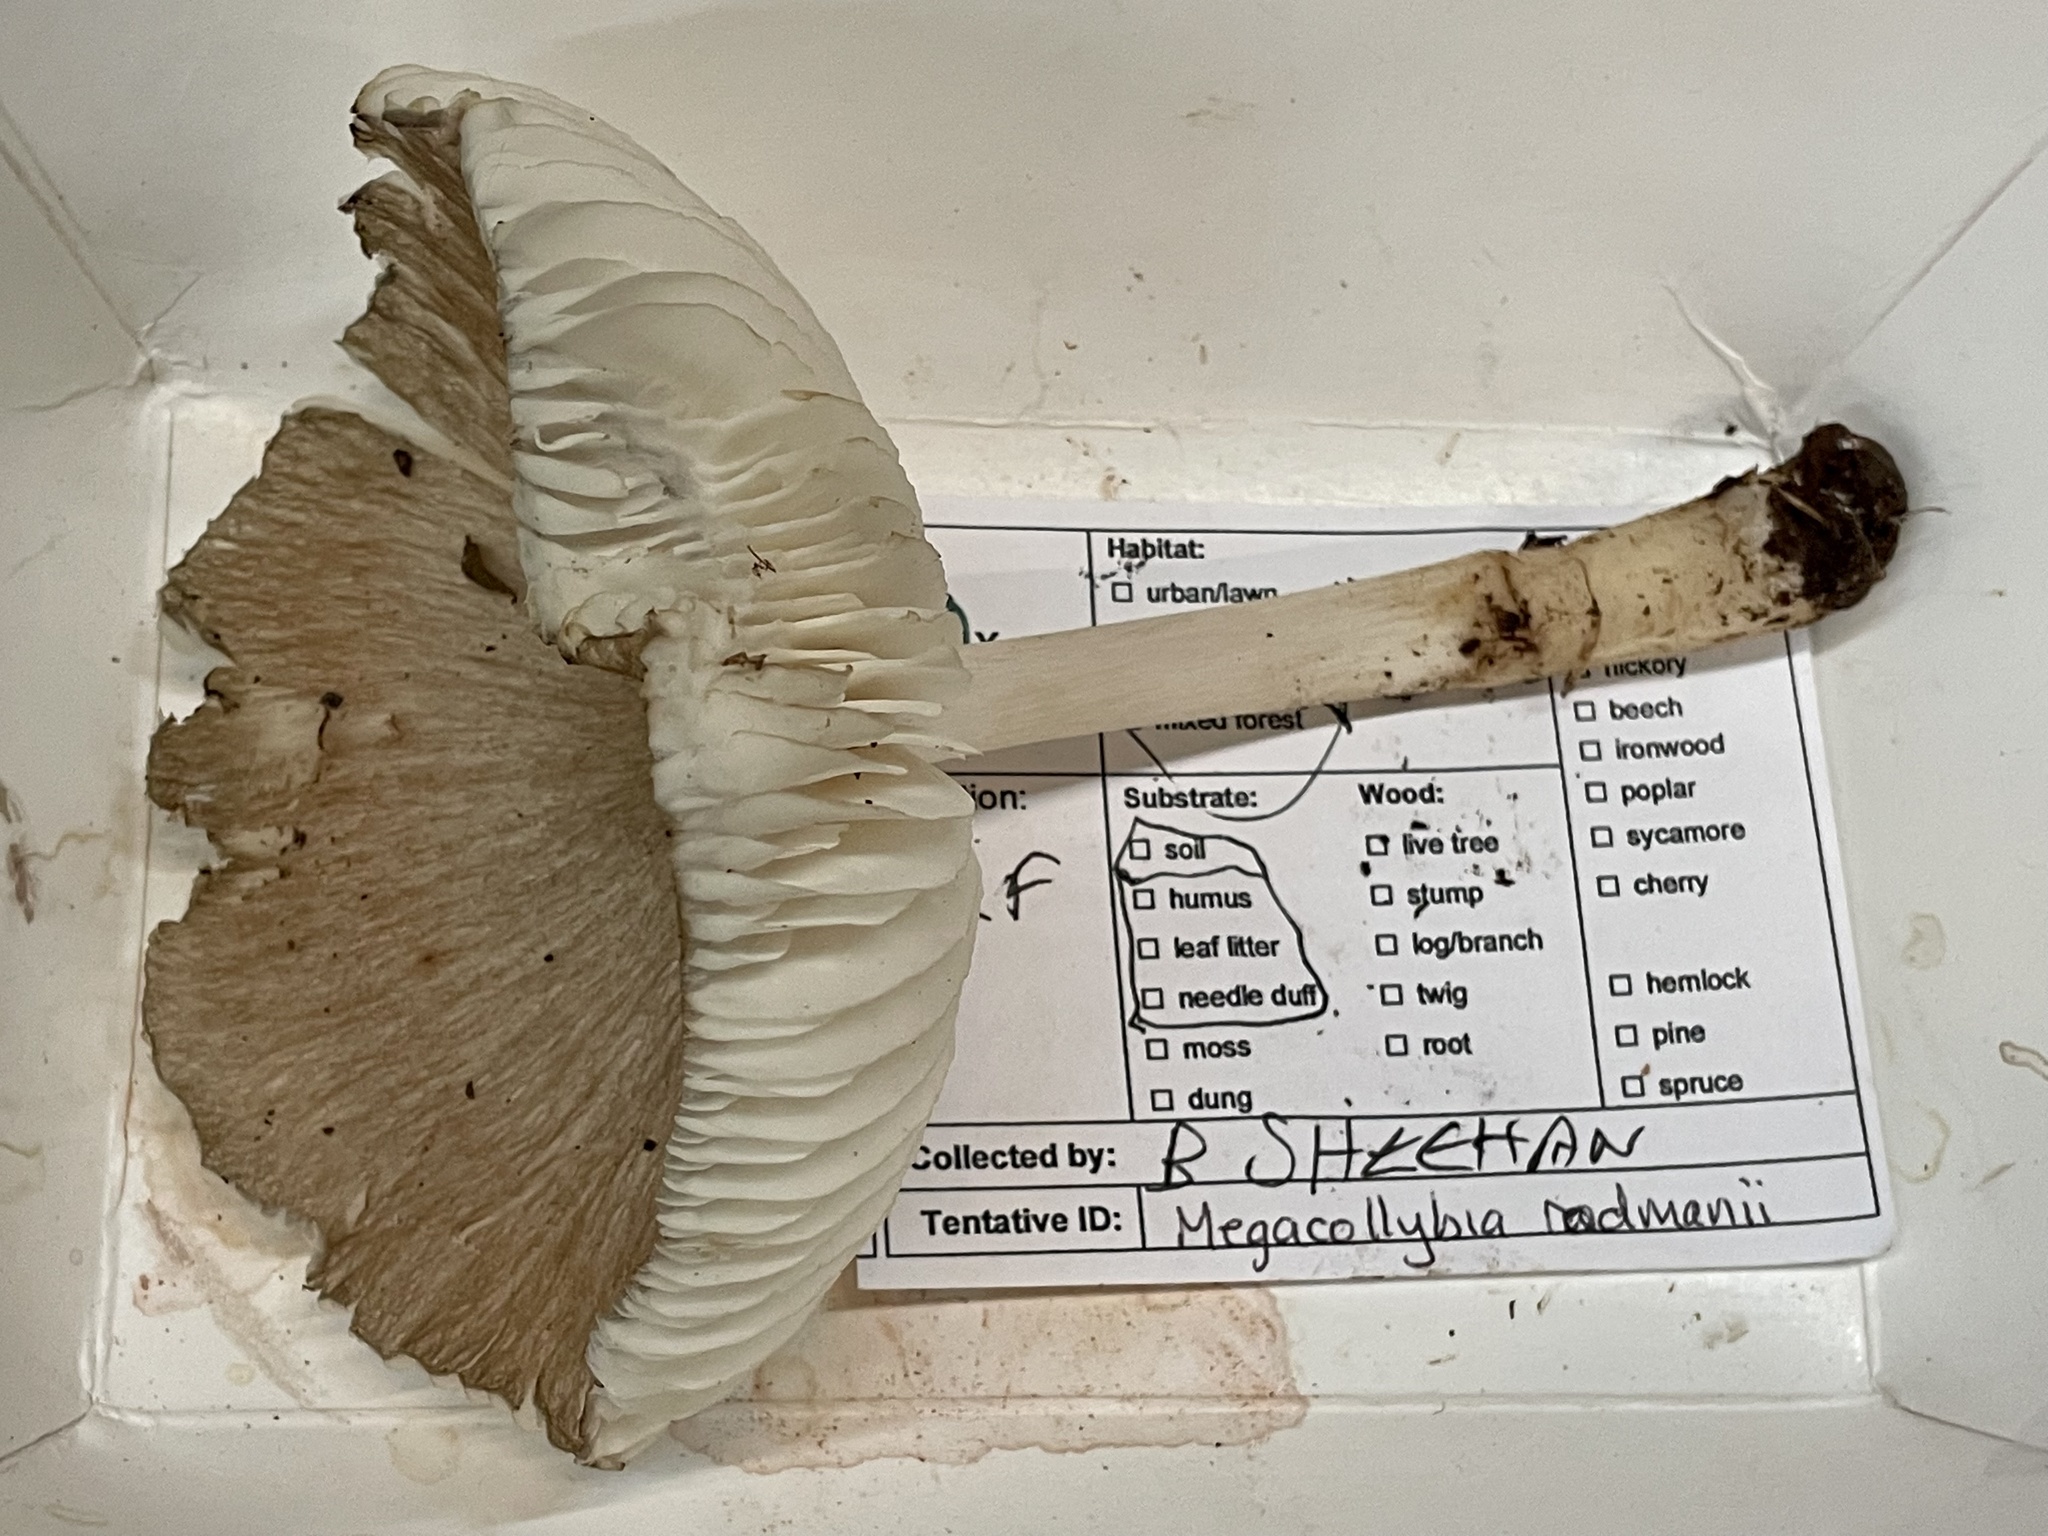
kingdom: Fungi
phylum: Basidiomycota
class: Agaricomycetes
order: Agaricales
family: Tricholomataceae
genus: Megacollybia
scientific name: Megacollybia rodmanii
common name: Eastern american platterful mushroom
